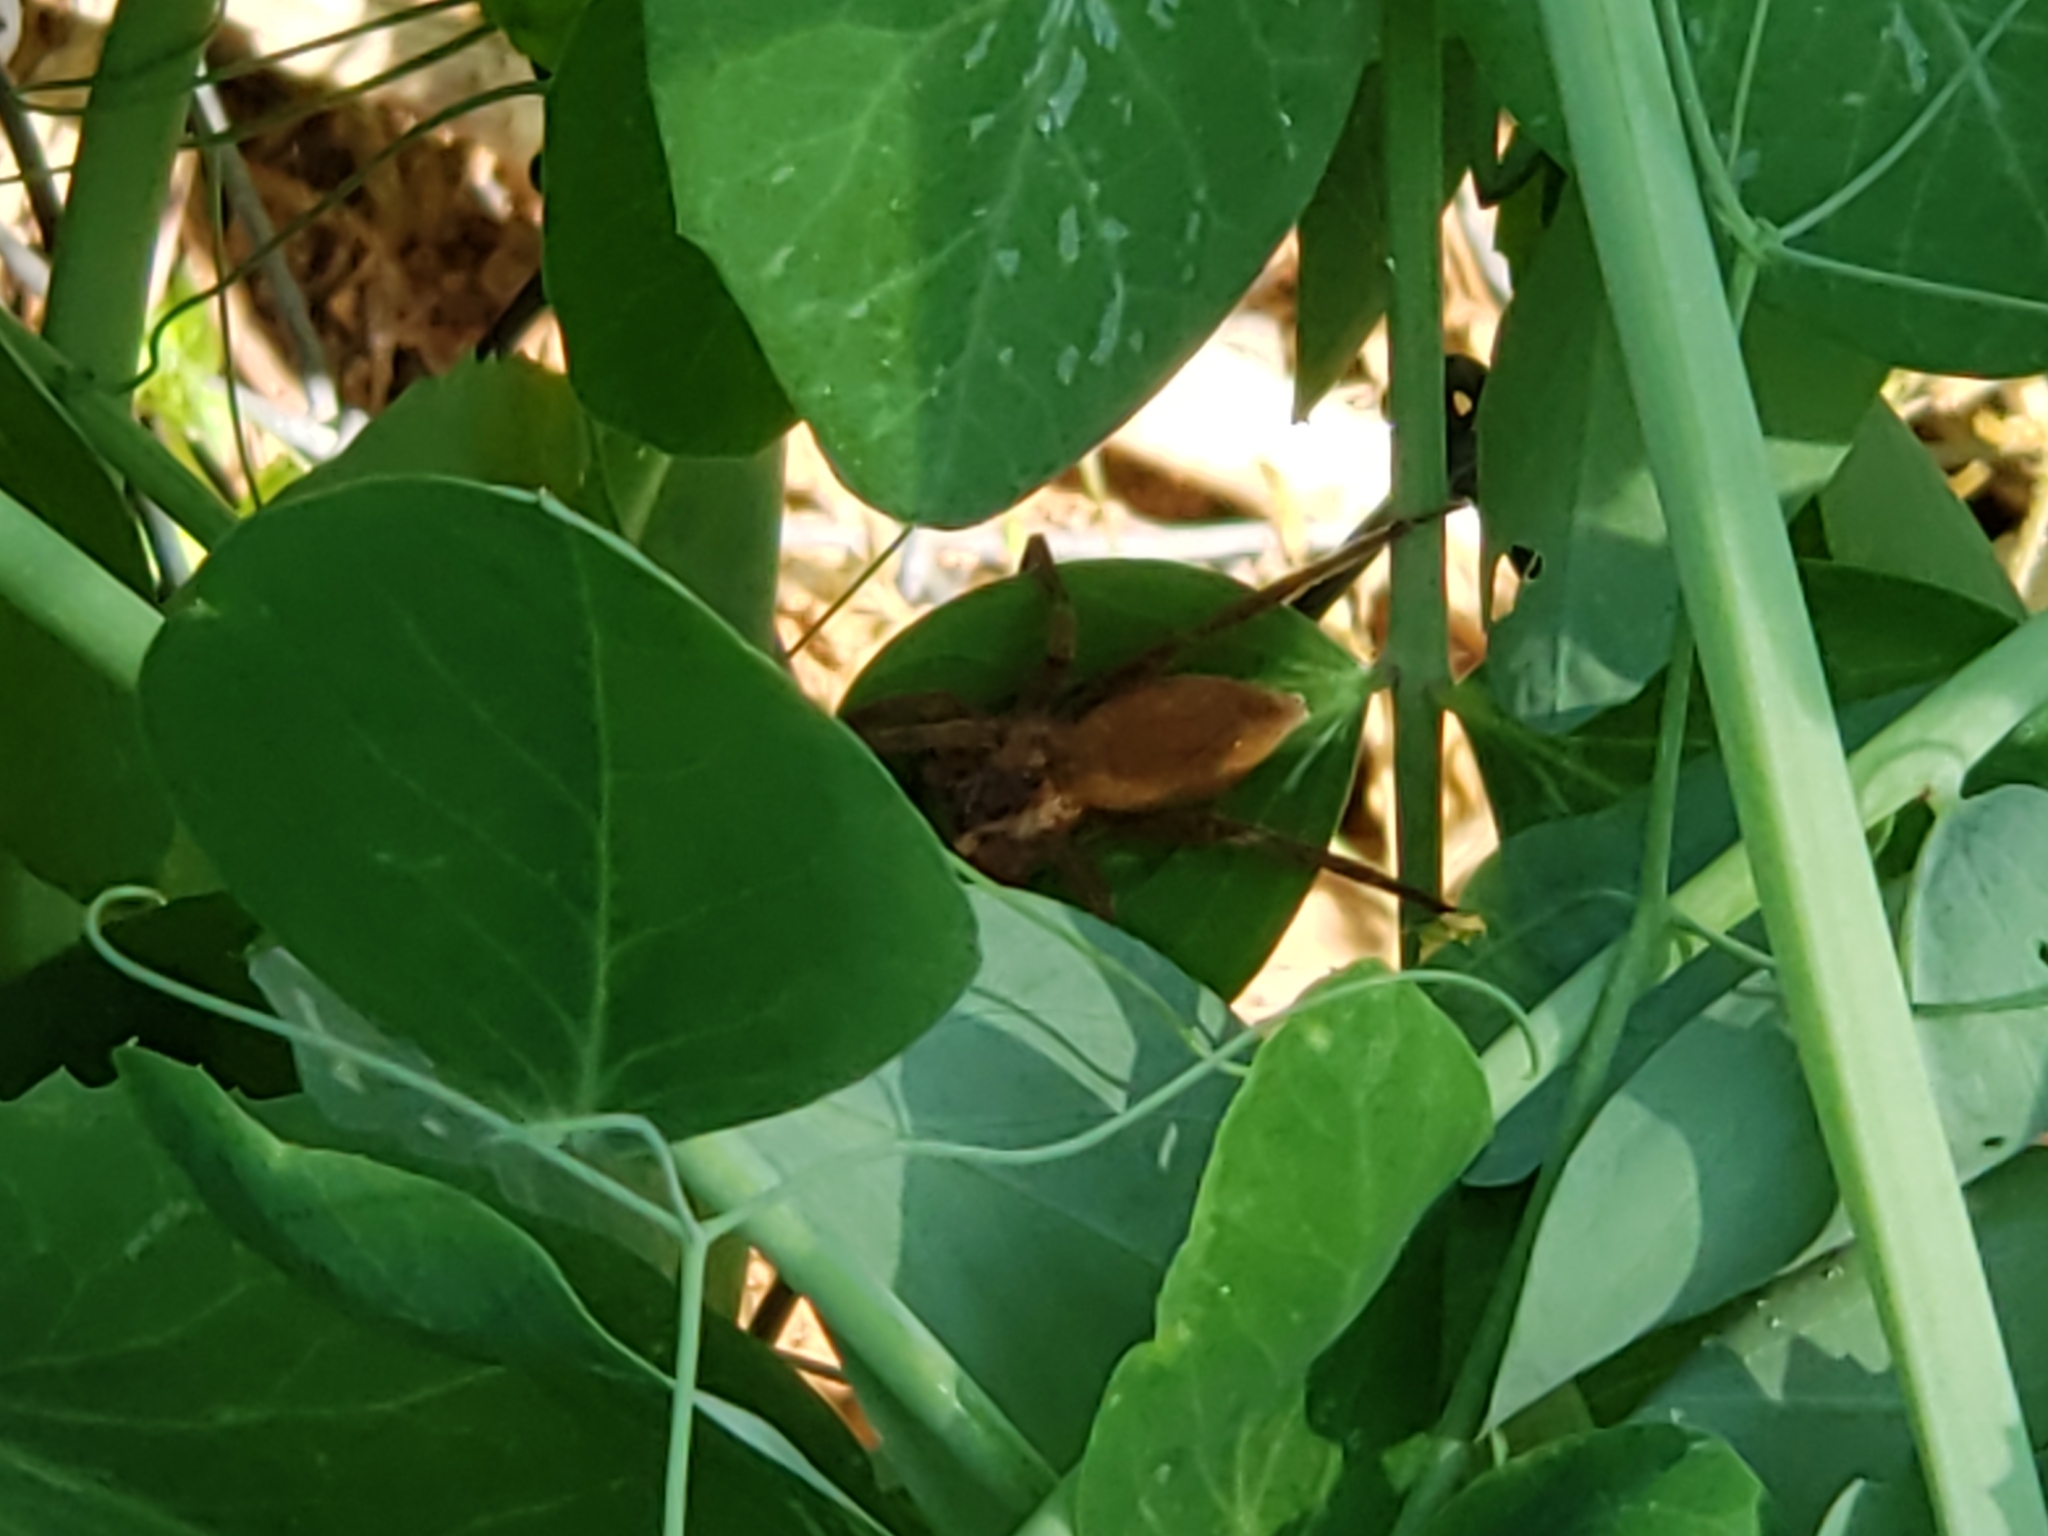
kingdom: Animalia
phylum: Arthropoda
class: Arachnida
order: Araneae
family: Pisauridae
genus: Pisaurina
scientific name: Pisaurina mira
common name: American nursery web spider
